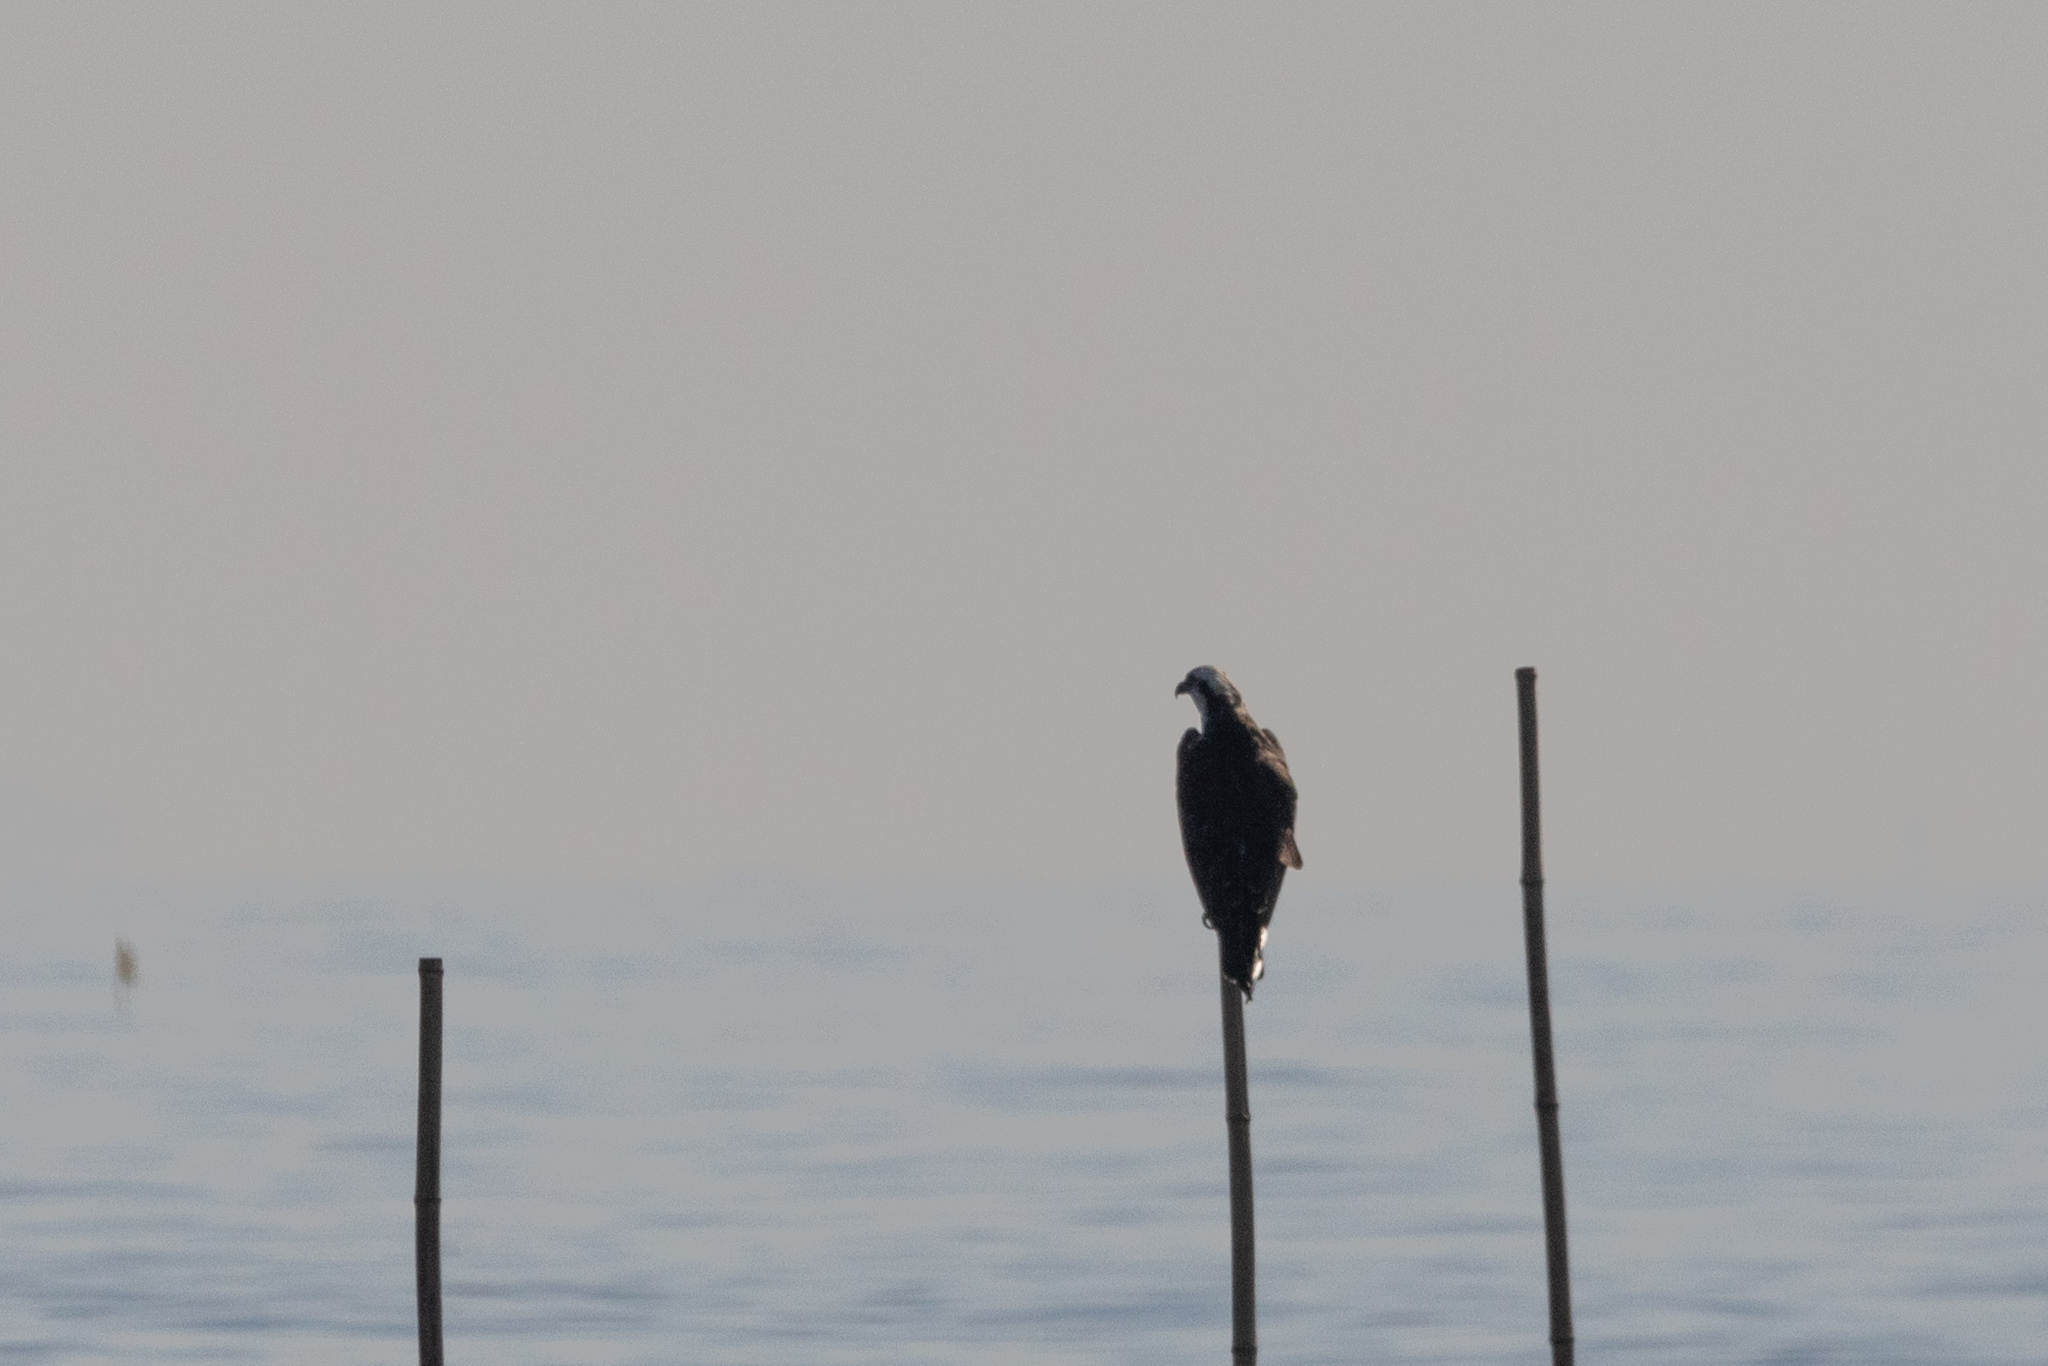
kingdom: Animalia
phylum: Chordata
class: Aves
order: Accipitriformes
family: Pandionidae
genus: Pandion
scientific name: Pandion haliaetus
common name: Osprey
